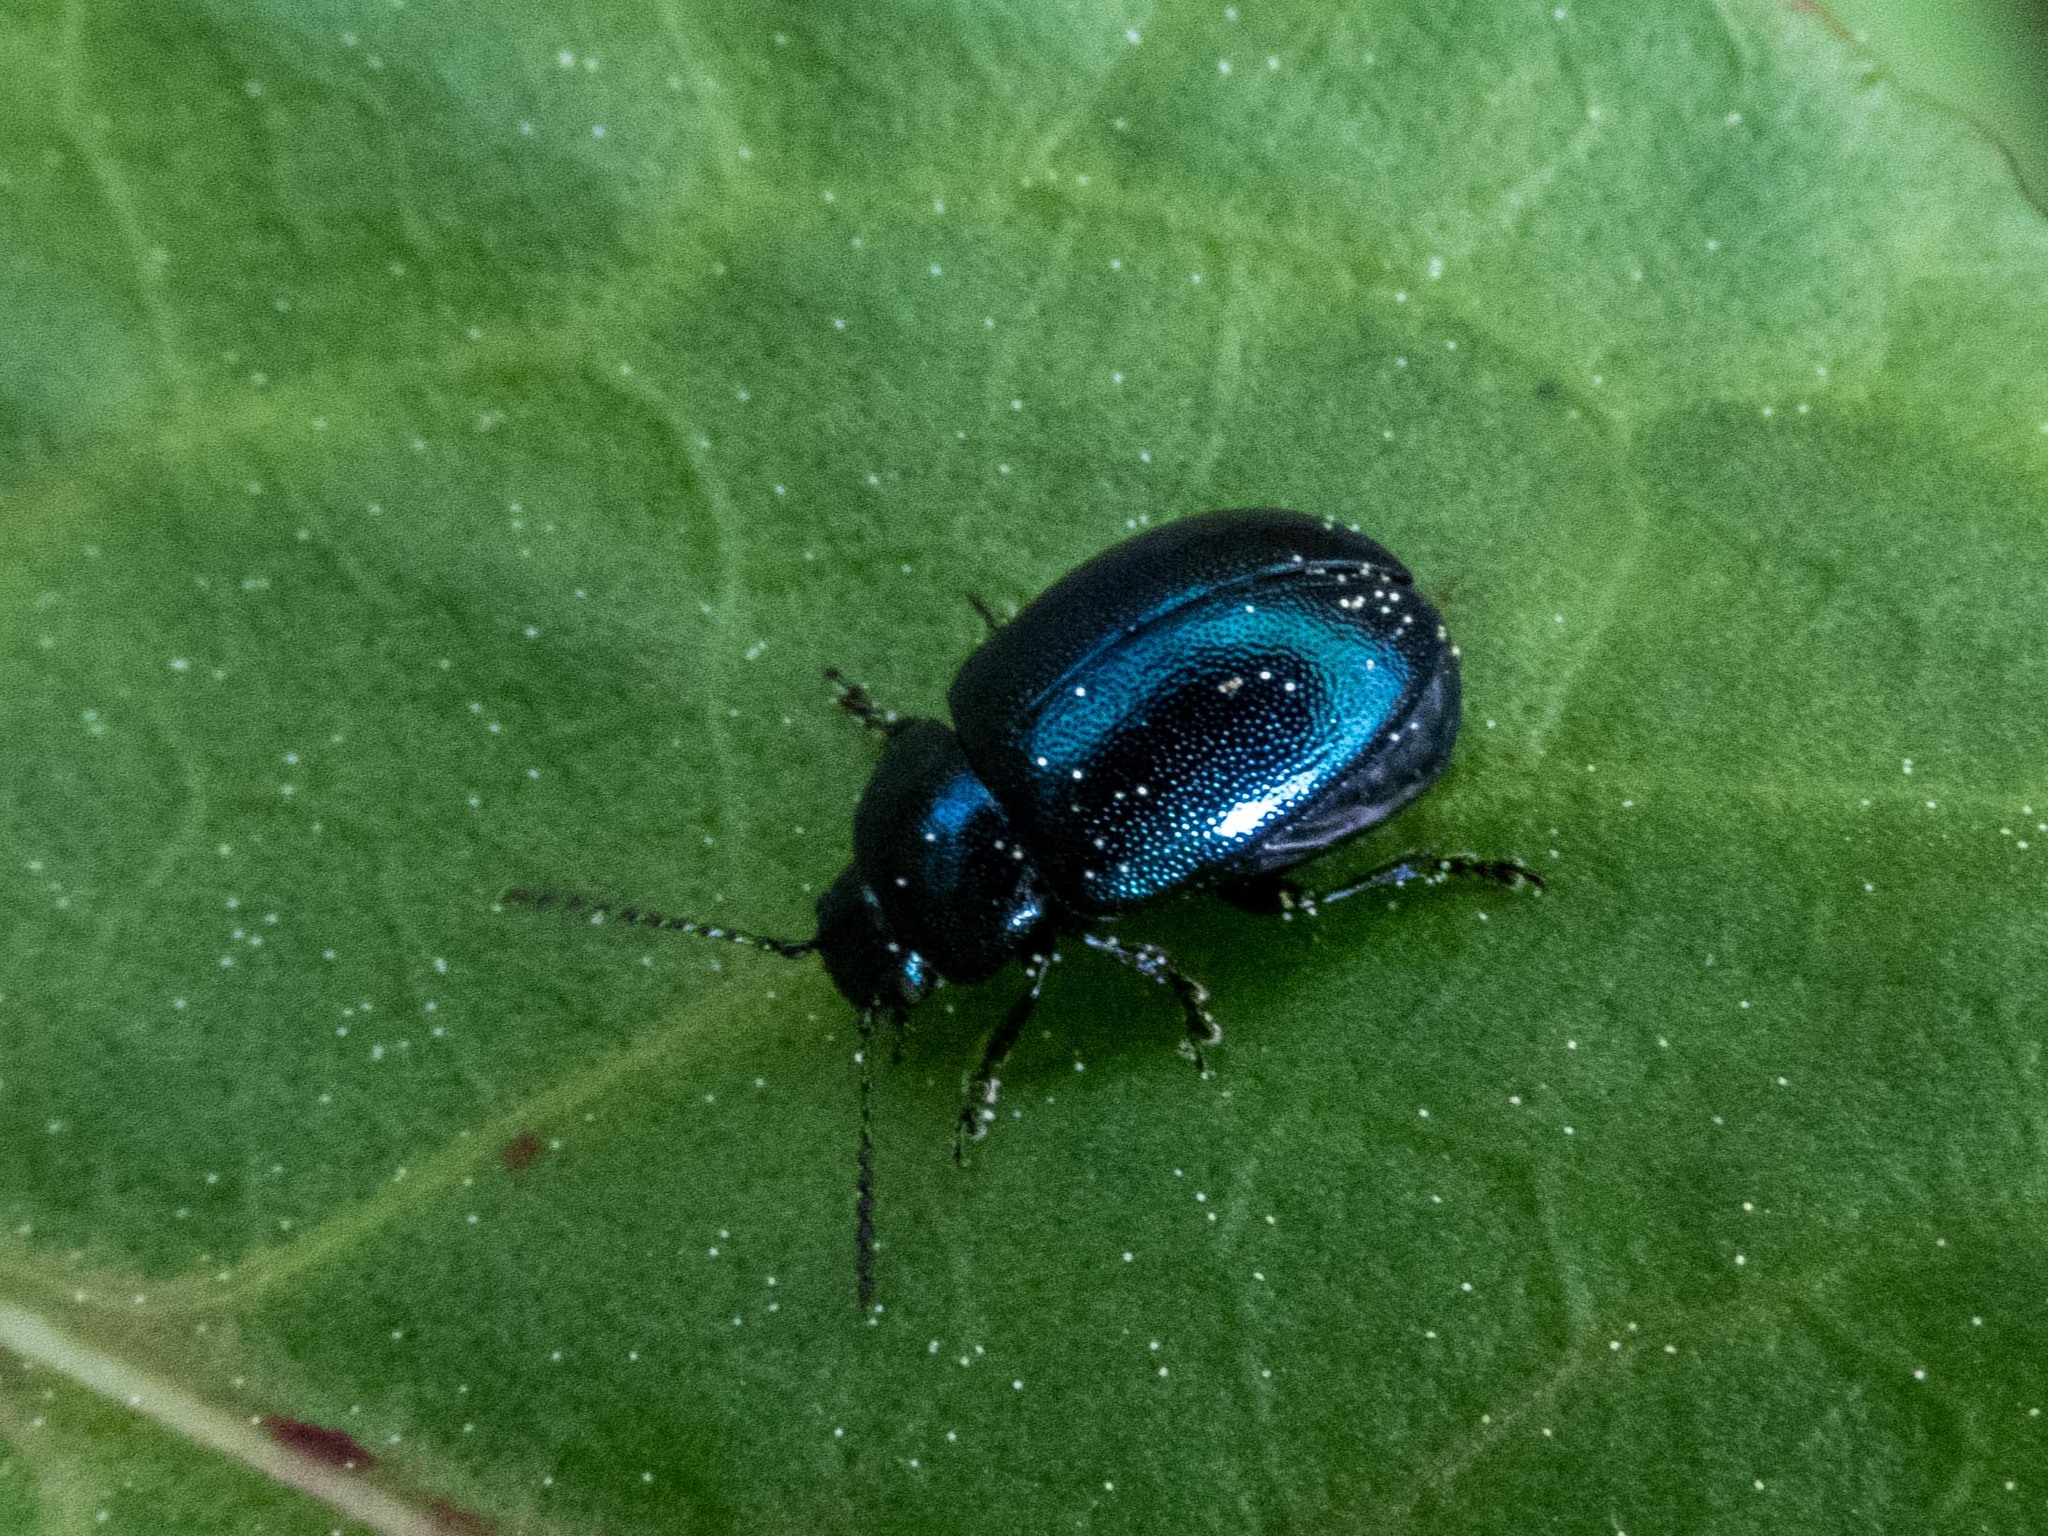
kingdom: Animalia
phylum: Arthropoda
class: Insecta
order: Coleoptera
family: Chrysomelidae
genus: Gastrophysa
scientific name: Gastrophysa janthina
